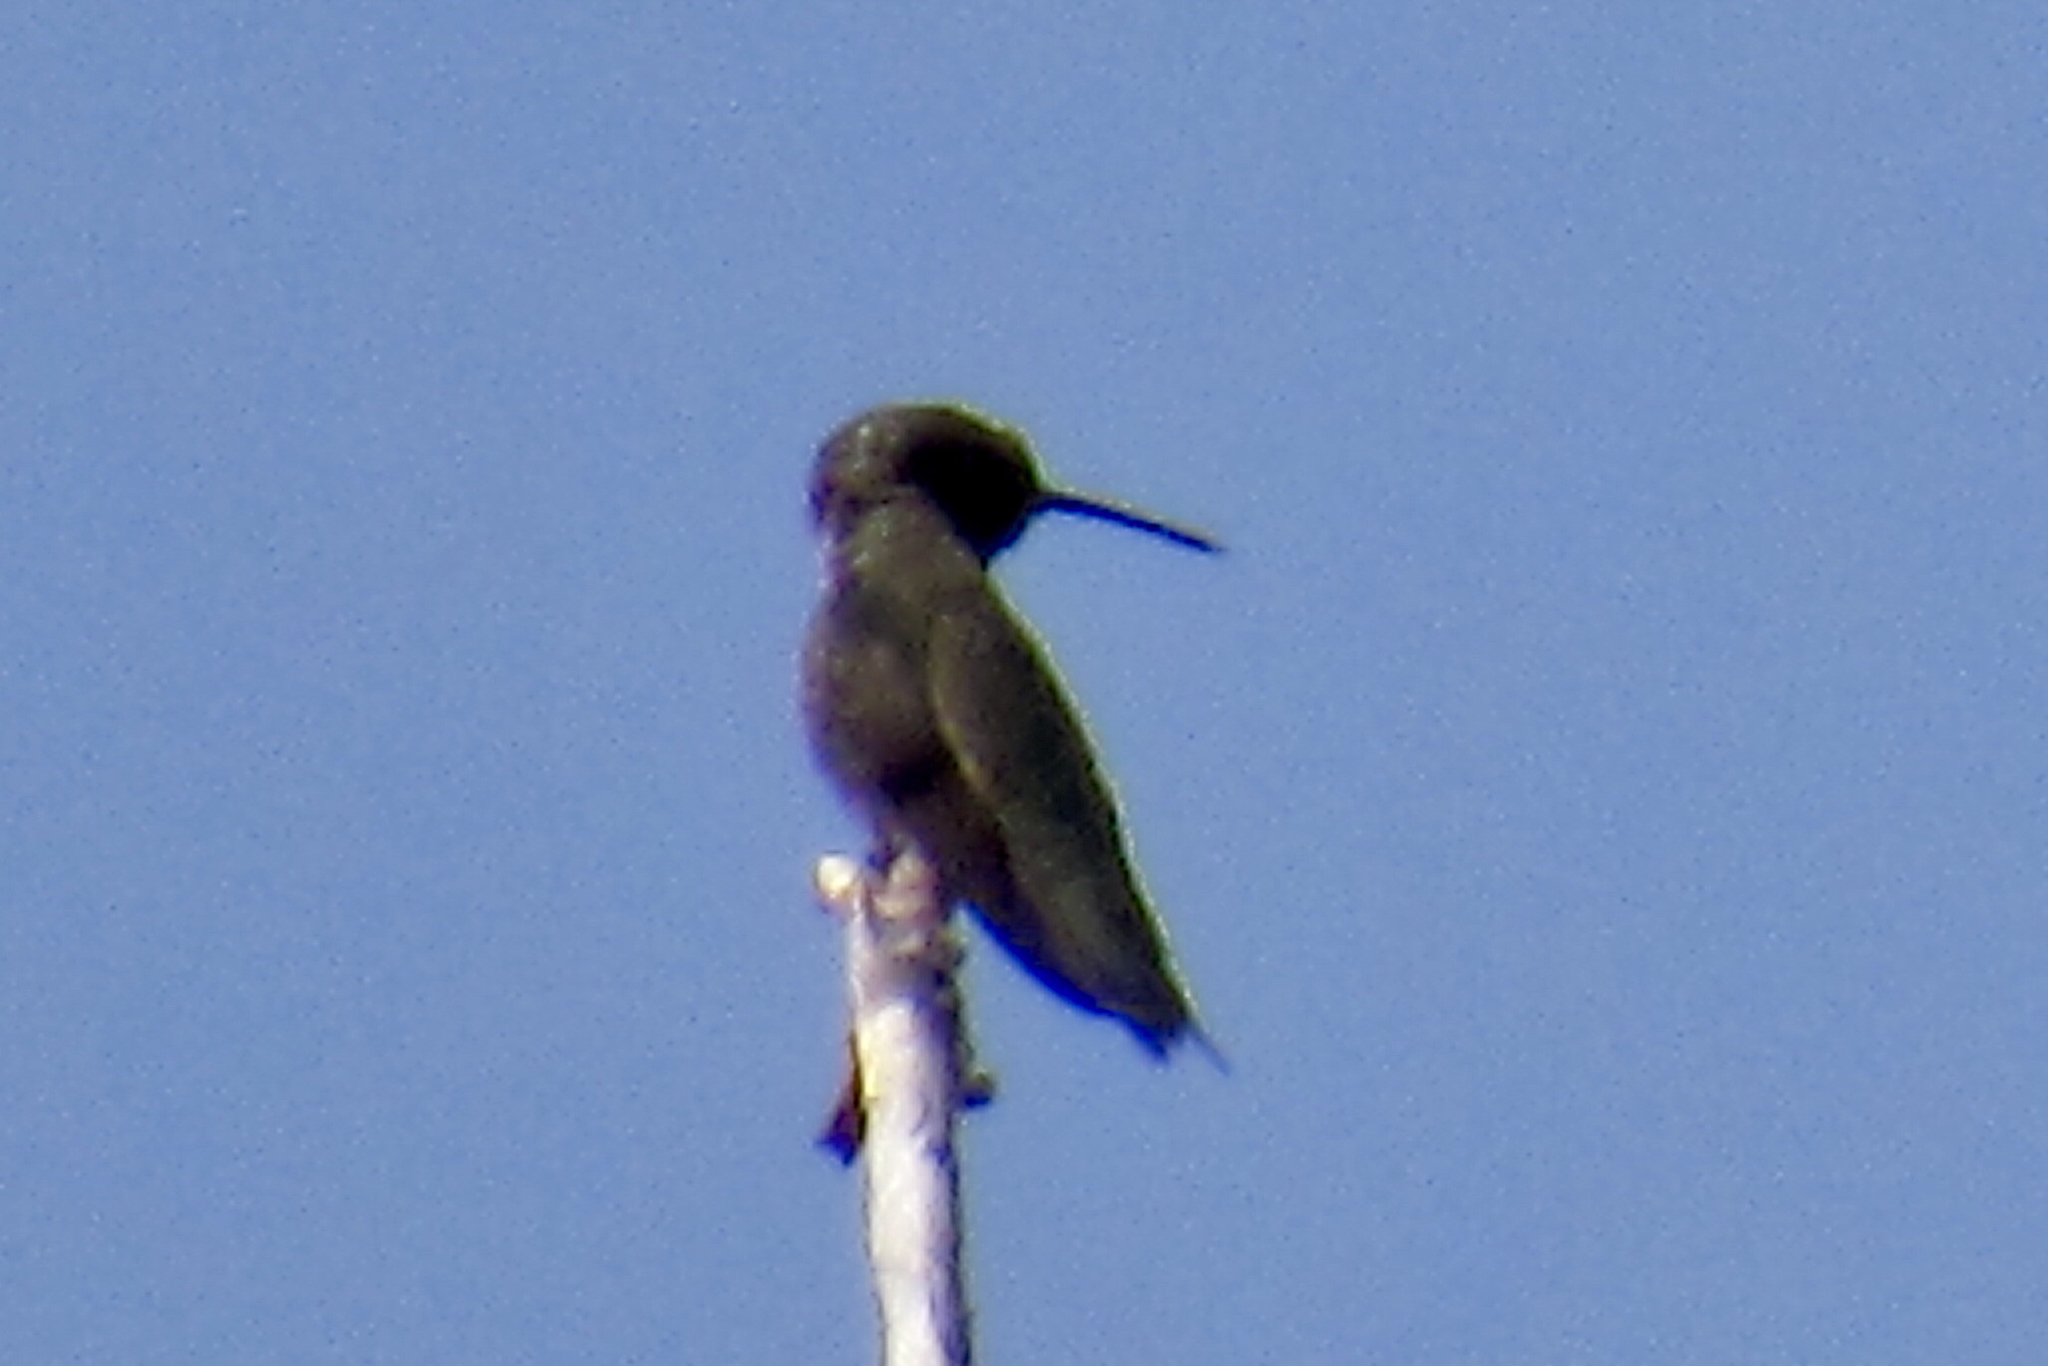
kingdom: Animalia
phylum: Chordata
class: Aves
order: Apodiformes
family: Trochilidae
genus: Archilochus
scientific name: Archilochus alexandri
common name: Black-chinned hummingbird
